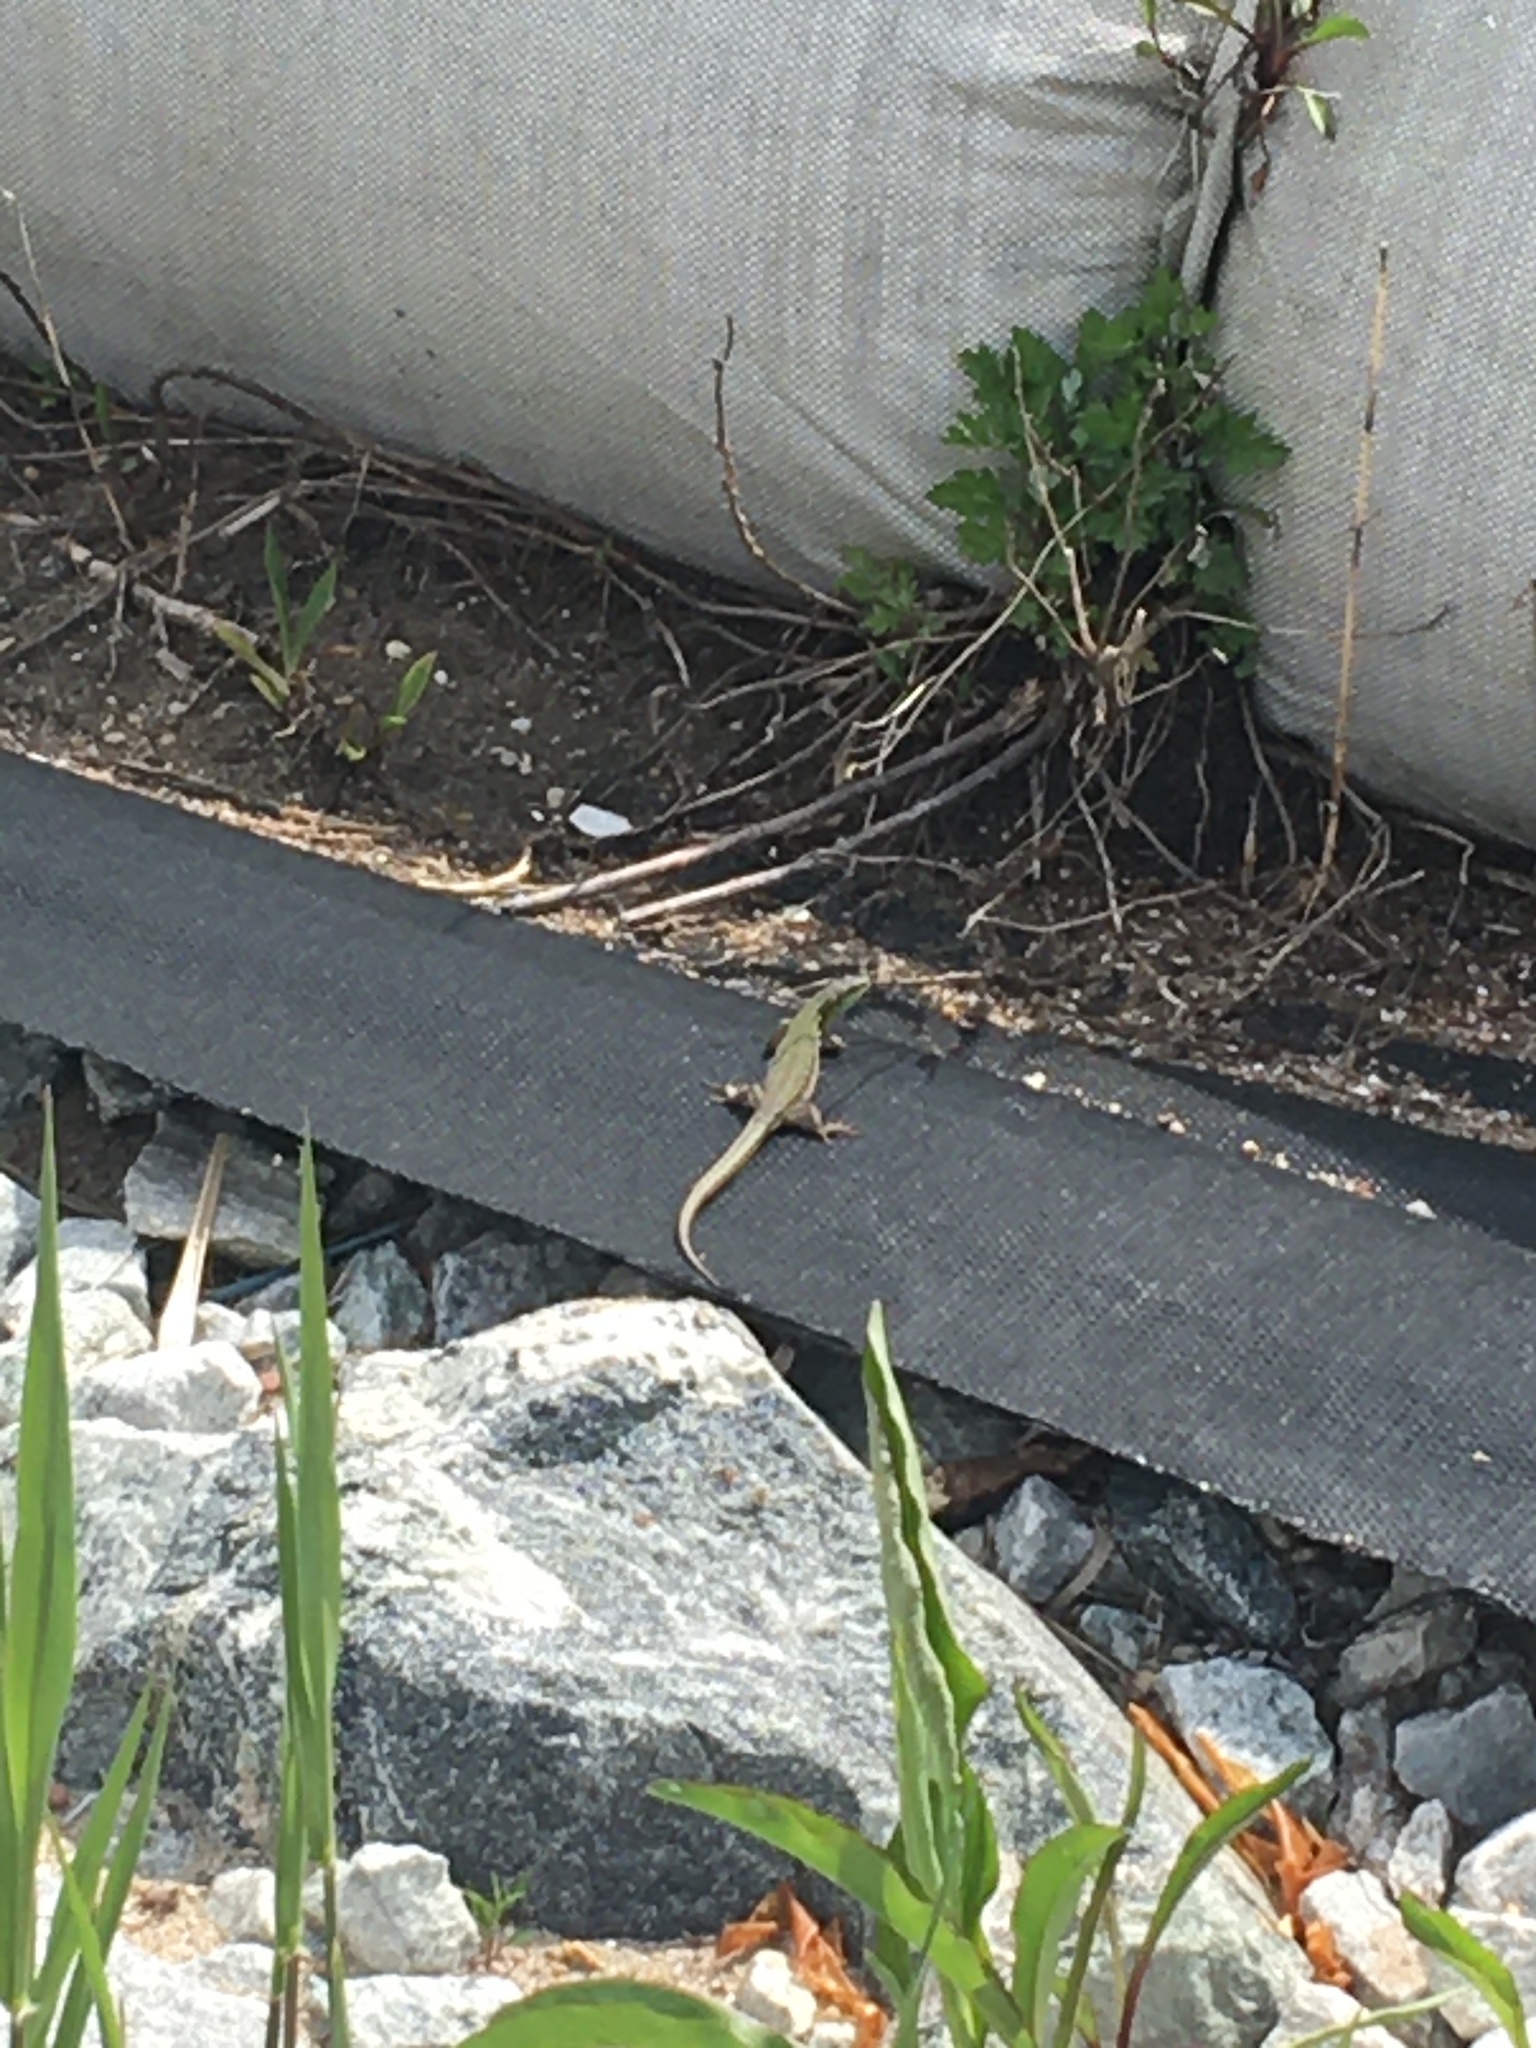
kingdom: Animalia
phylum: Chordata
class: Squamata
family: Lacertidae
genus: Podarcis
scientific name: Podarcis siculus
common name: Italian wall lizard
